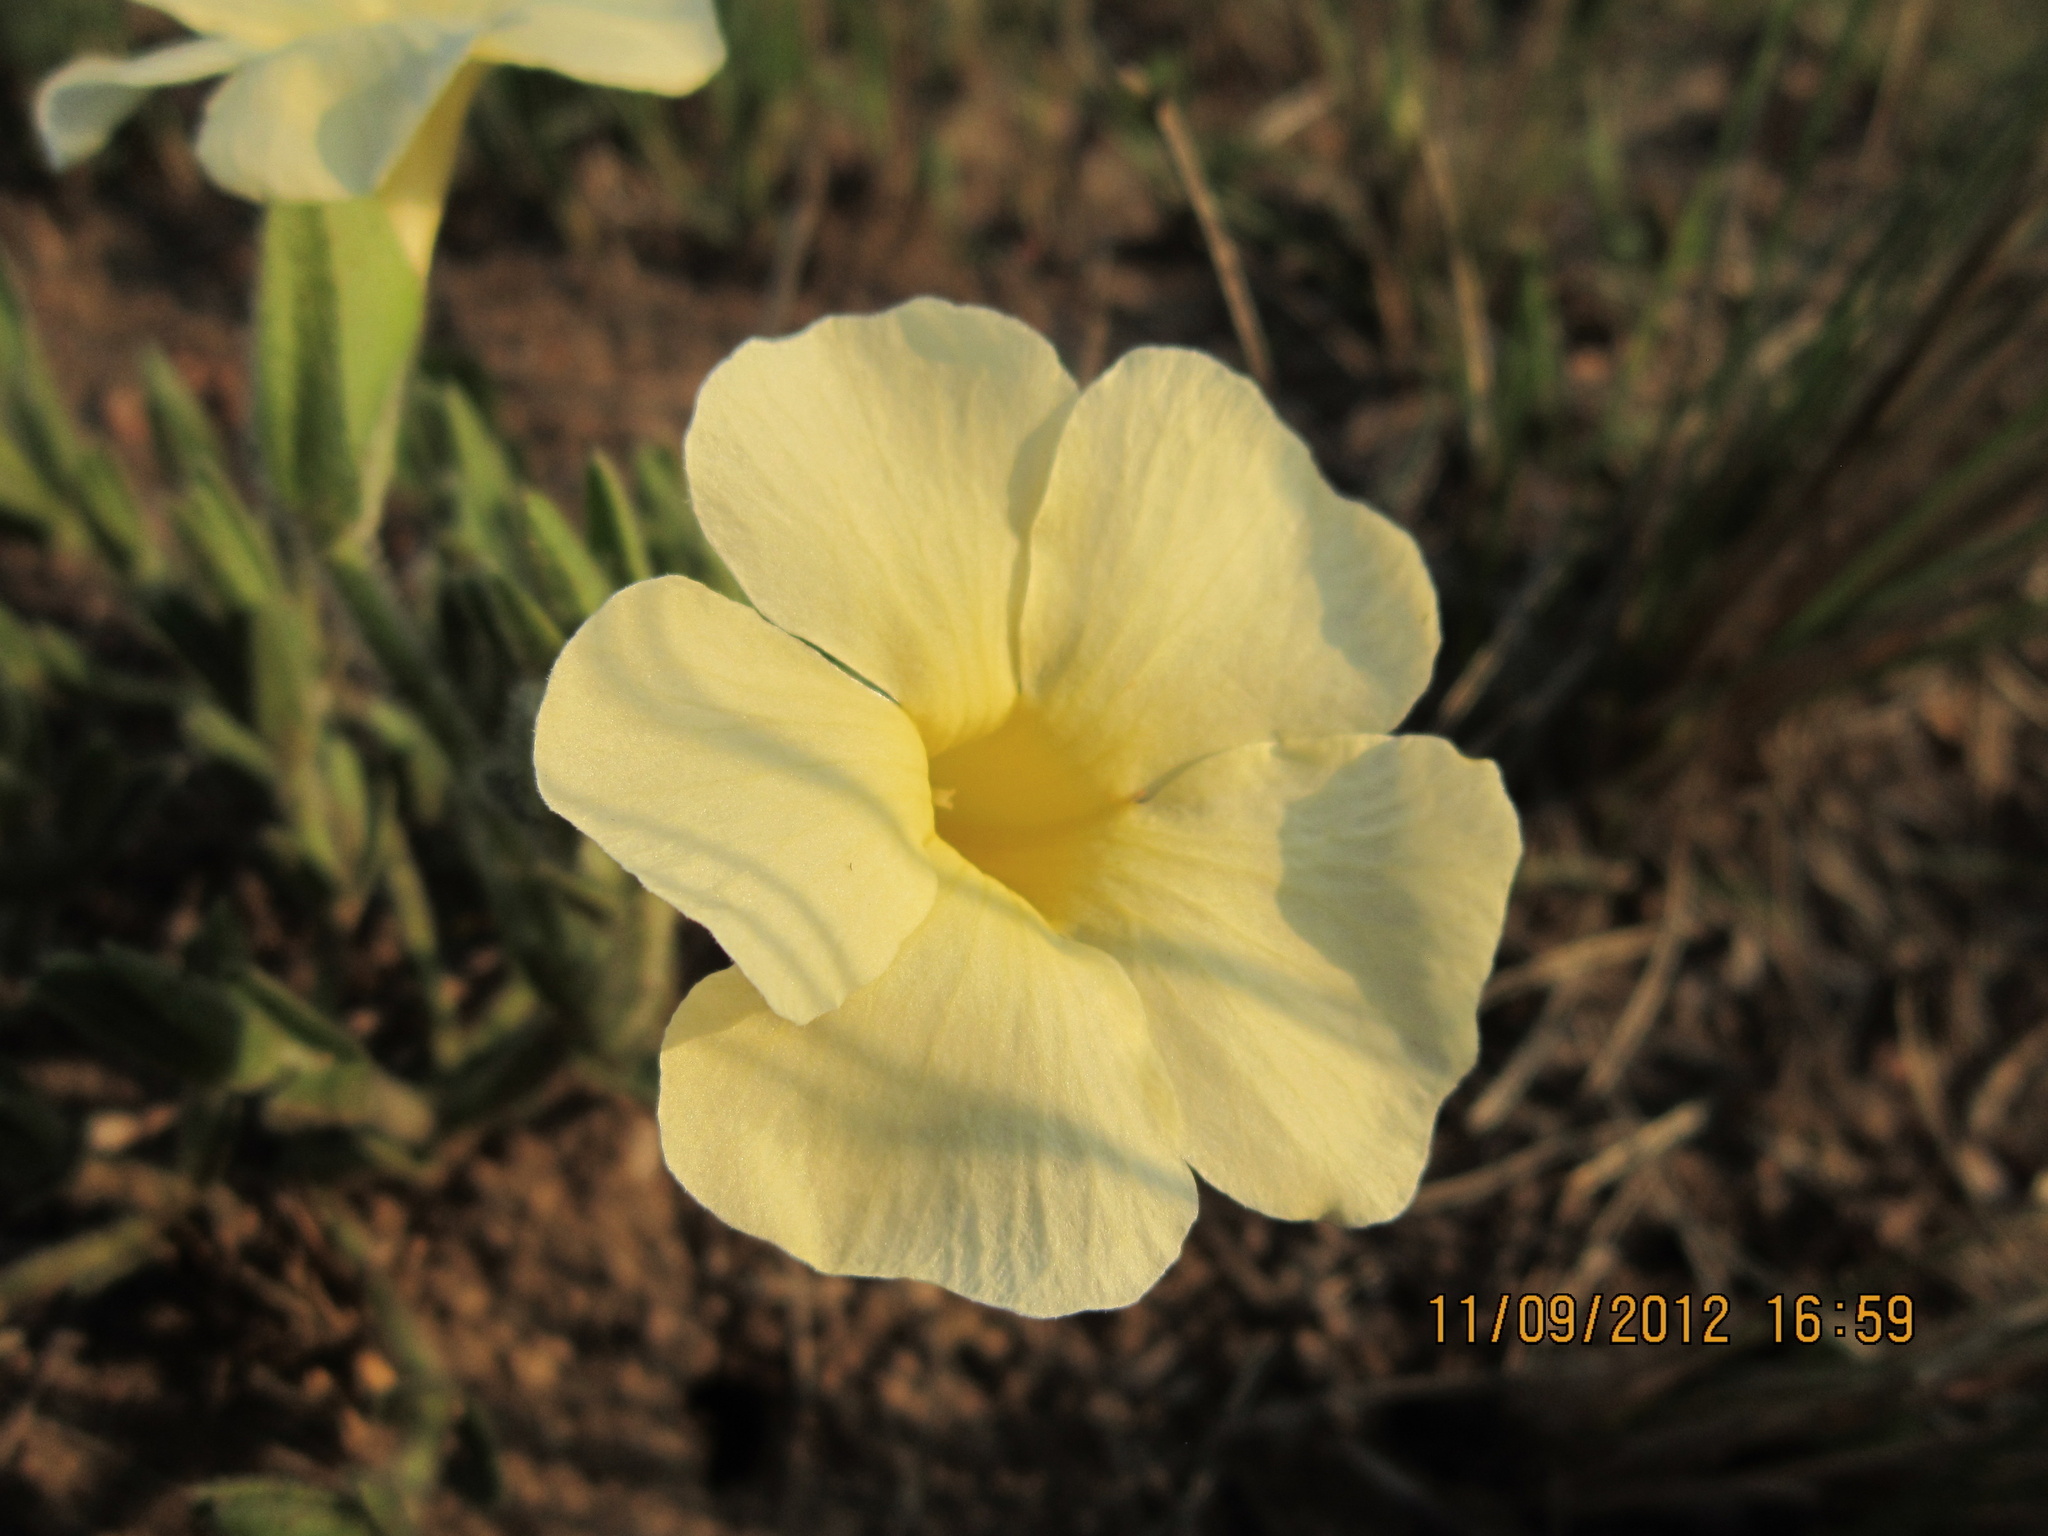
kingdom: Plantae
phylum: Tracheophyta
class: Magnoliopsida
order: Lamiales
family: Acanthaceae
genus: Thunbergia
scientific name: Thunbergia atriplicifolia
